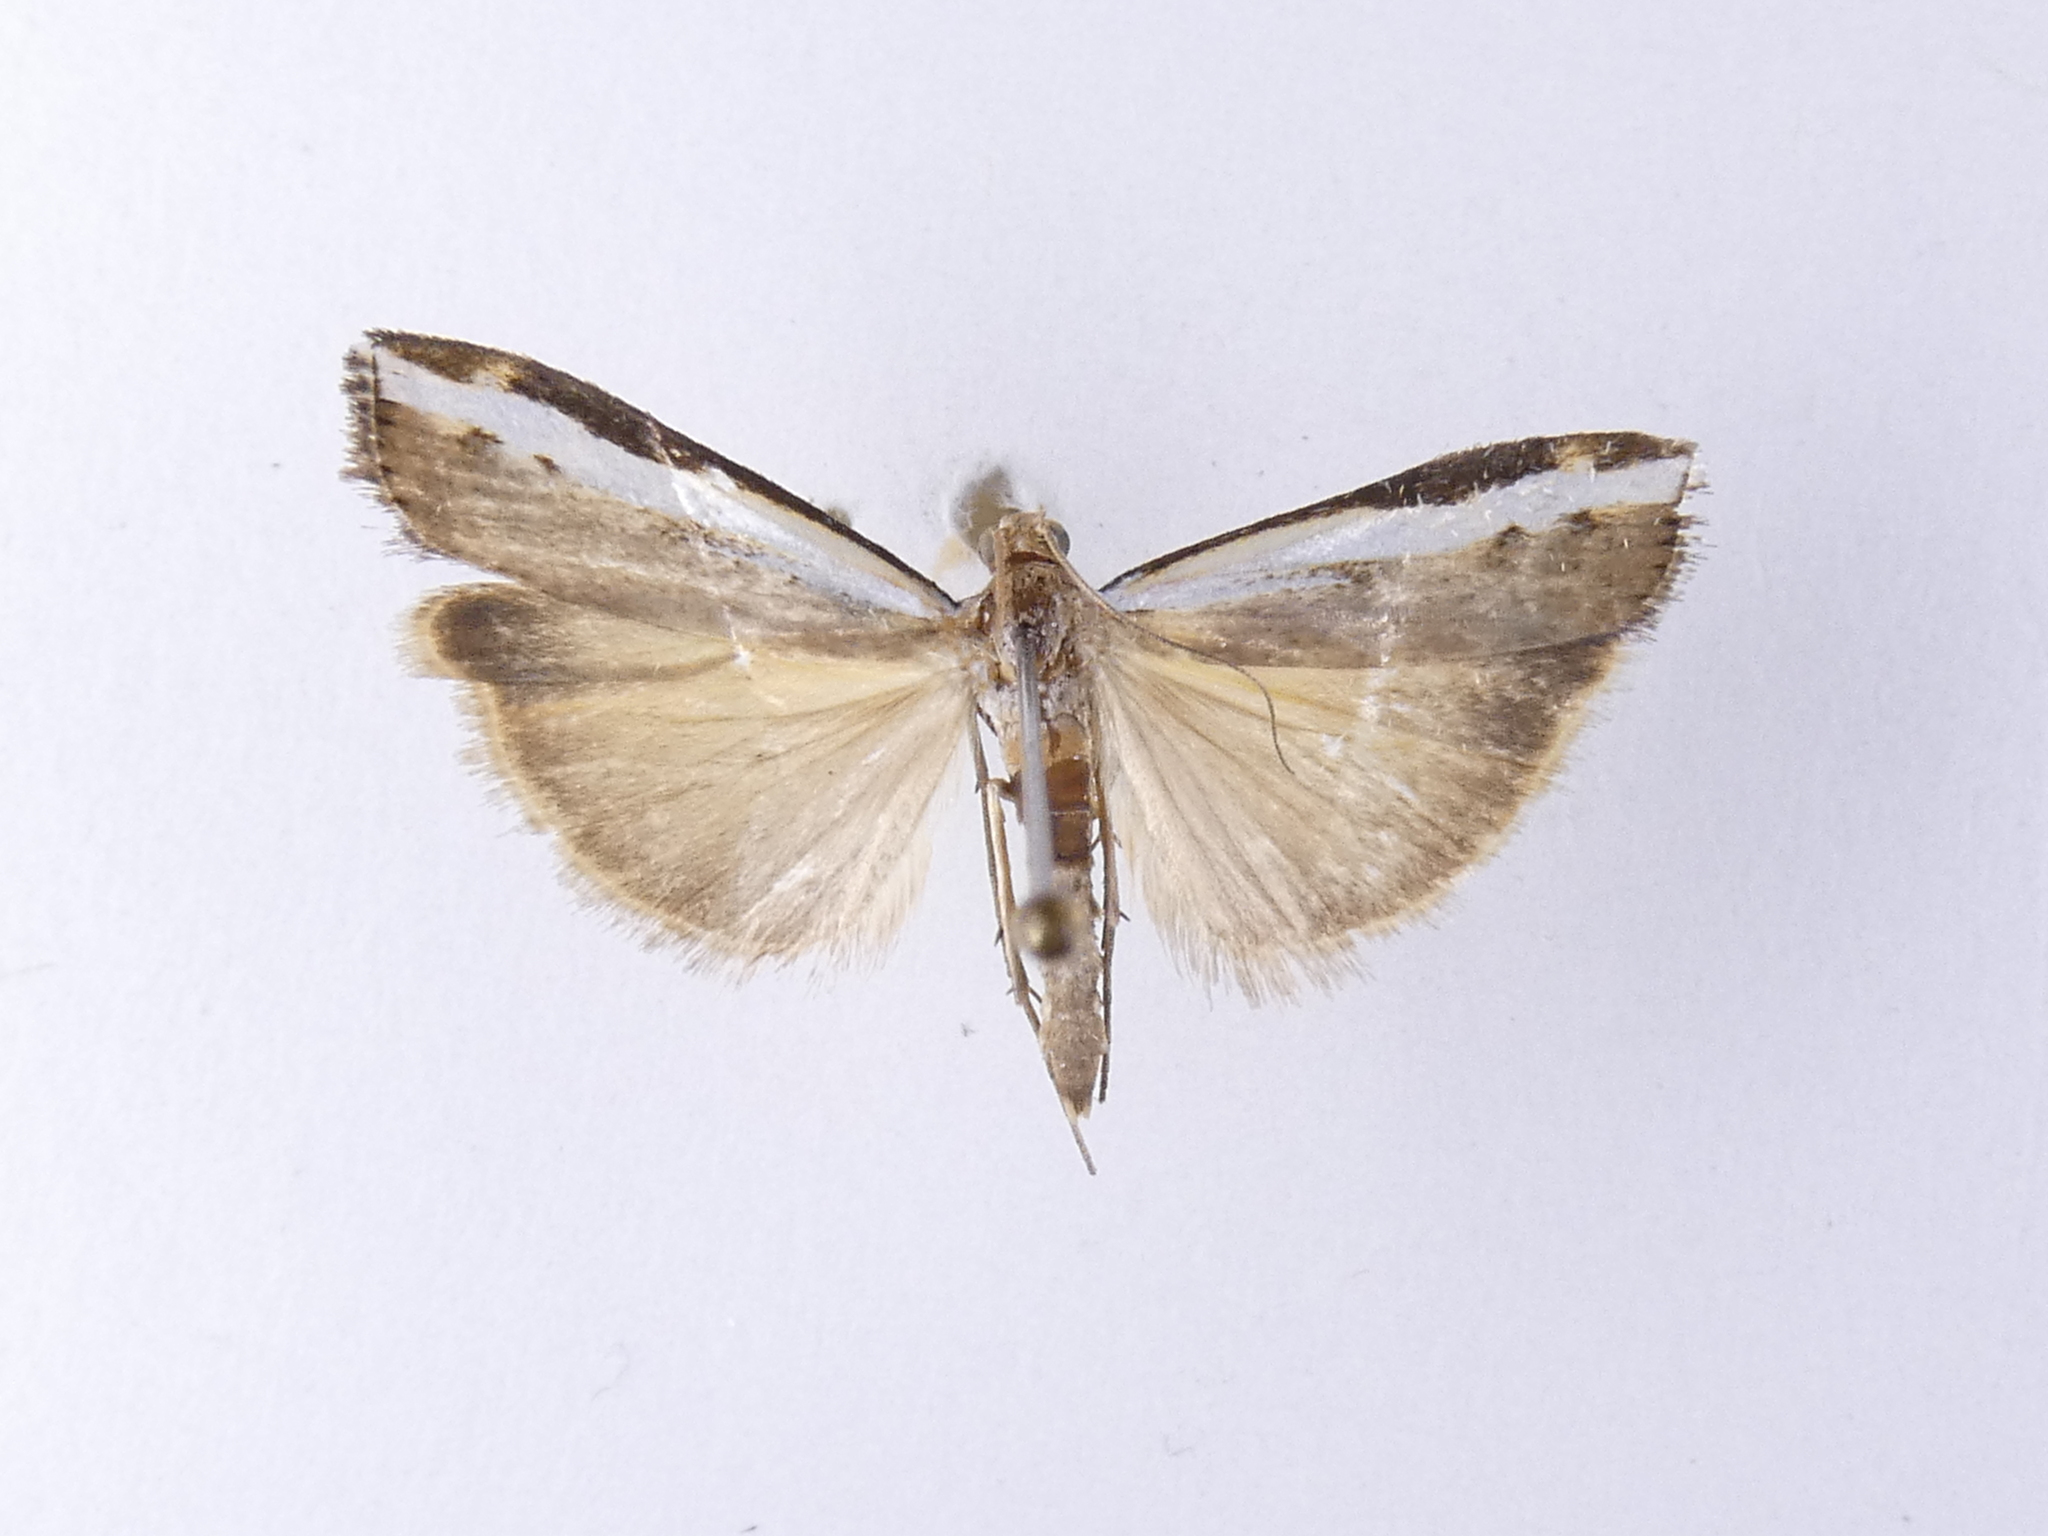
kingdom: Animalia
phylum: Arthropoda
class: Insecta
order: Lepidoptera
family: Crambidae
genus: Orocrambus
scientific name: Orocrambus flexuosellus
